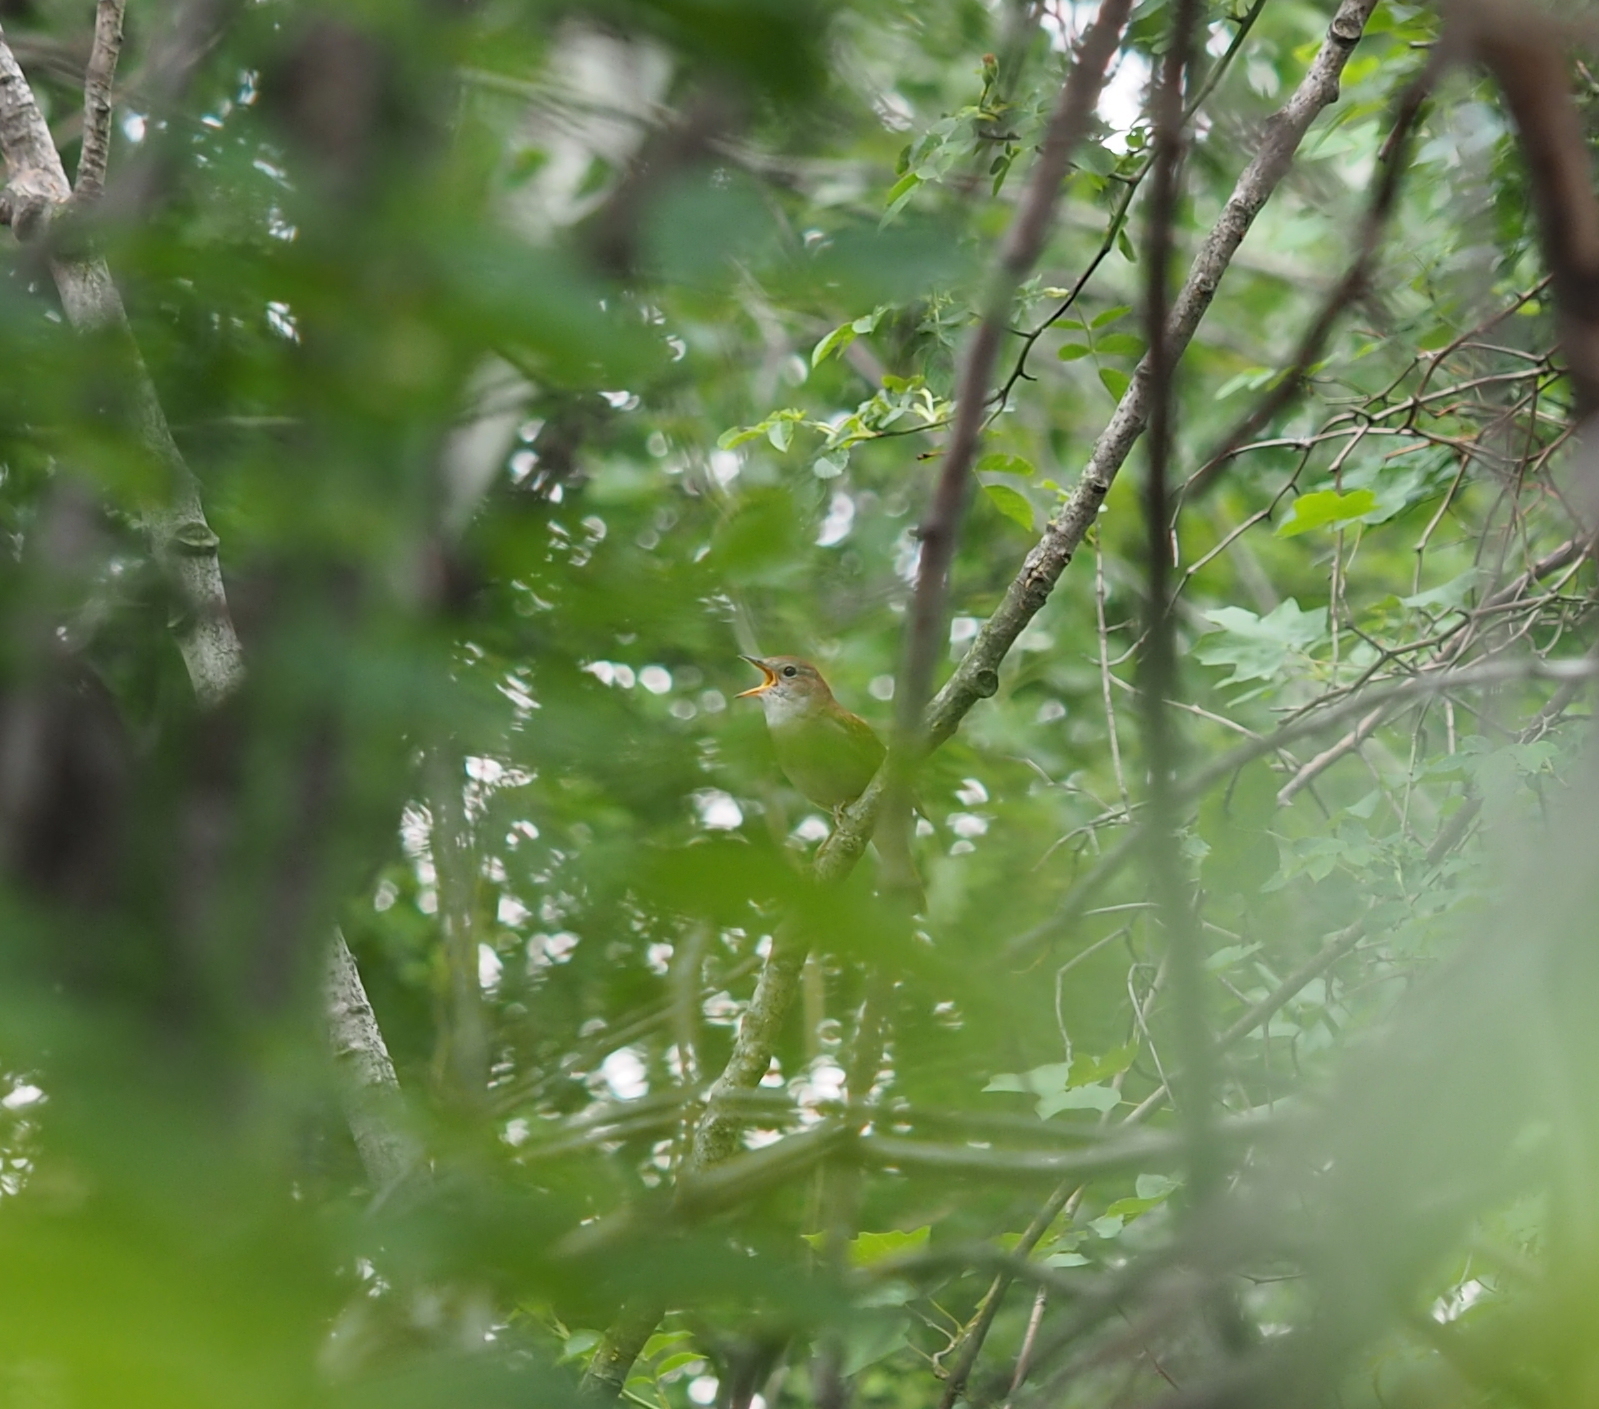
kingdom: Animalia
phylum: Chordata
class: Aves
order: Passeriformes
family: Muscicapidae
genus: Luscinia
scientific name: Luscinia megarhynchos
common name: Common nightingale
